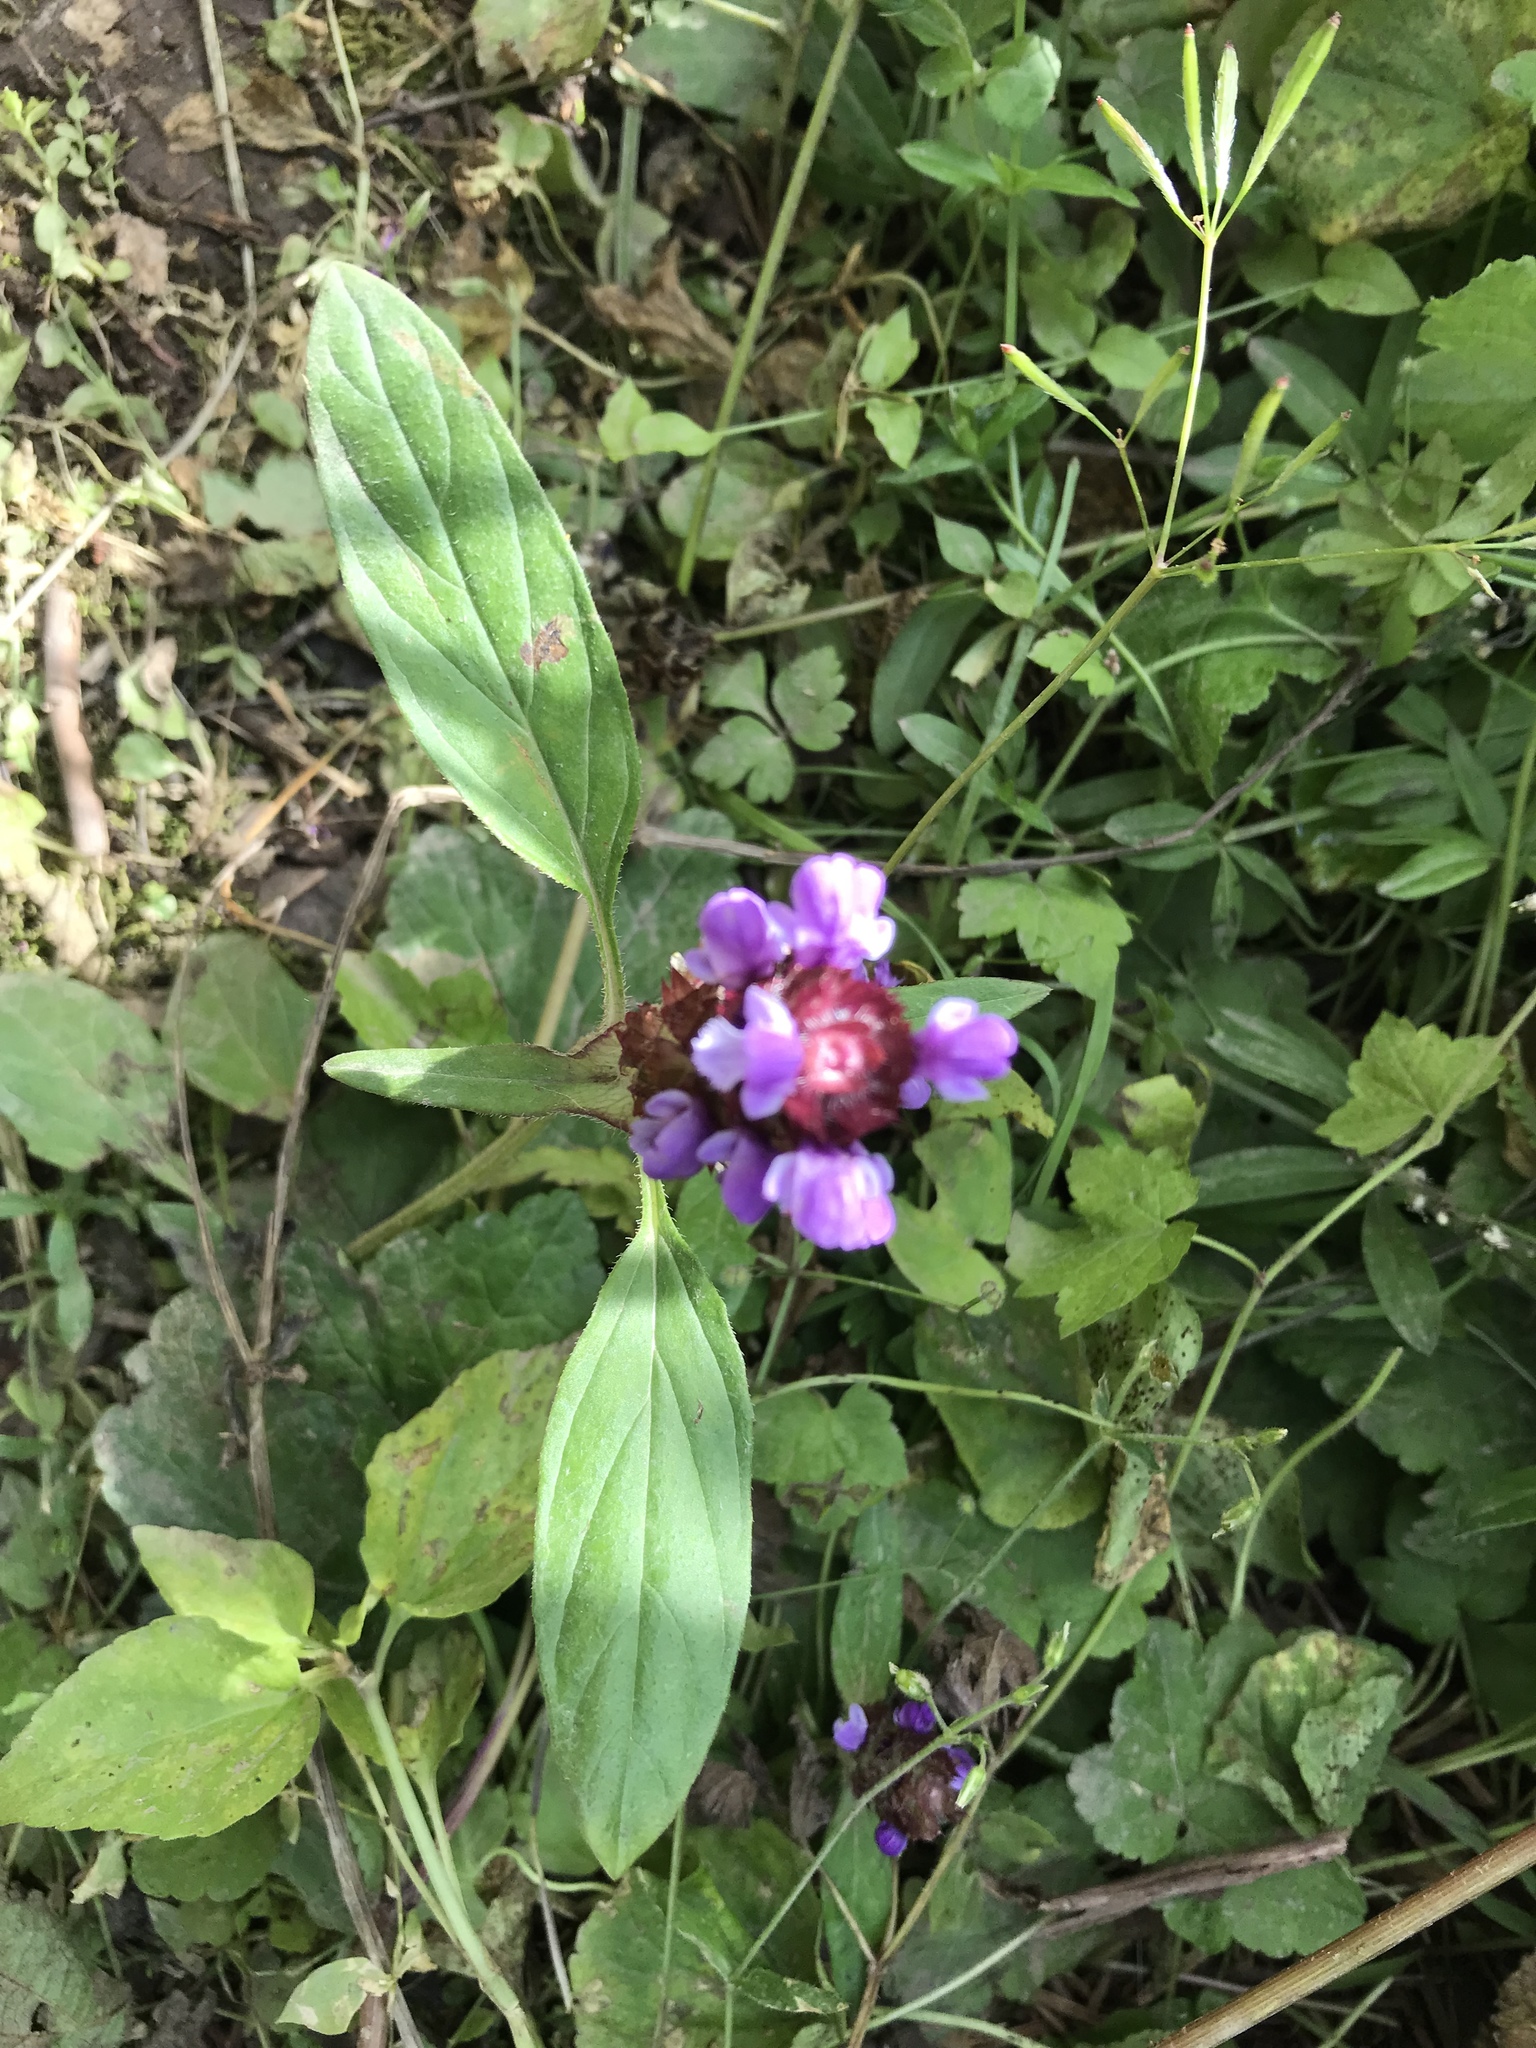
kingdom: Plantae
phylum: Tracheophyta
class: Magnoliopsida
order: Lamiales
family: Lamiaceae
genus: Prunella
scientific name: Prunella vulgaris
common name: Heal-all
